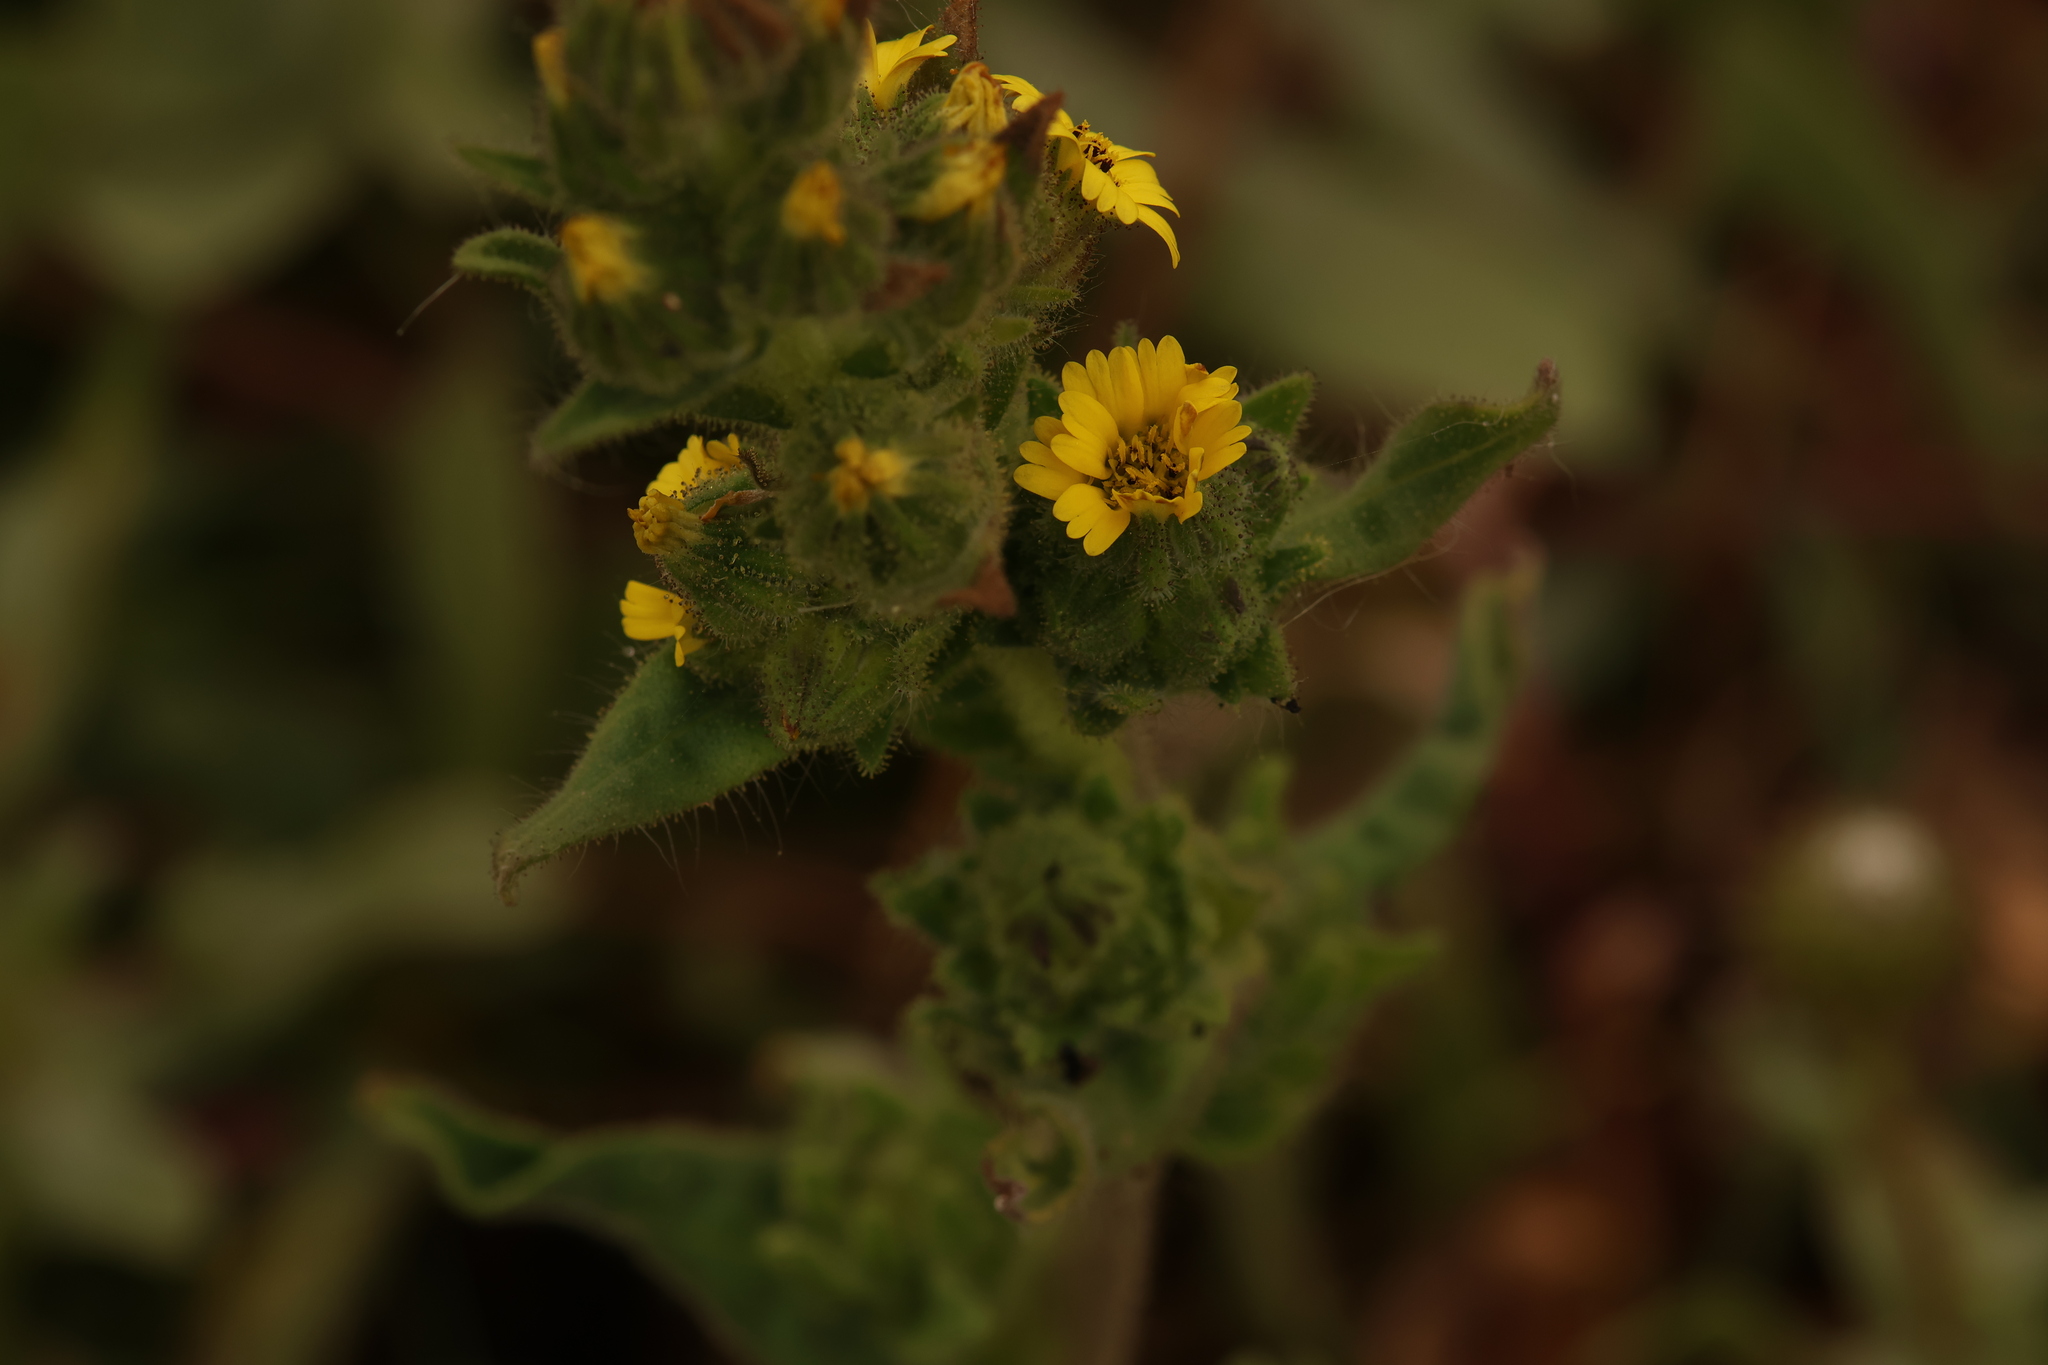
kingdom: Plantae
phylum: Tracheophyta
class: Magnoliopsida
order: Asterales
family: Asteraceae
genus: Madia
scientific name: Madia sativa
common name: Coast tarweed
